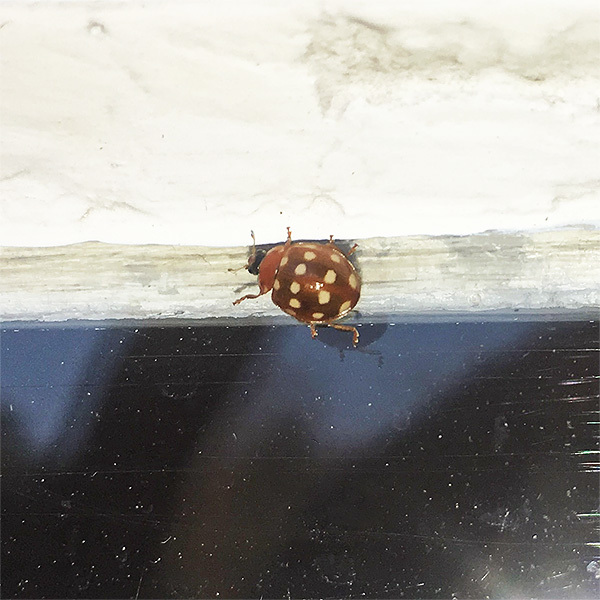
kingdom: Animalia
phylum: Arthropoda
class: Insecta
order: Coleoptera
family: Coccinellidae
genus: Calvia
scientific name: Calvia quatuordecimguttata
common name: Cream-spot ladybird
